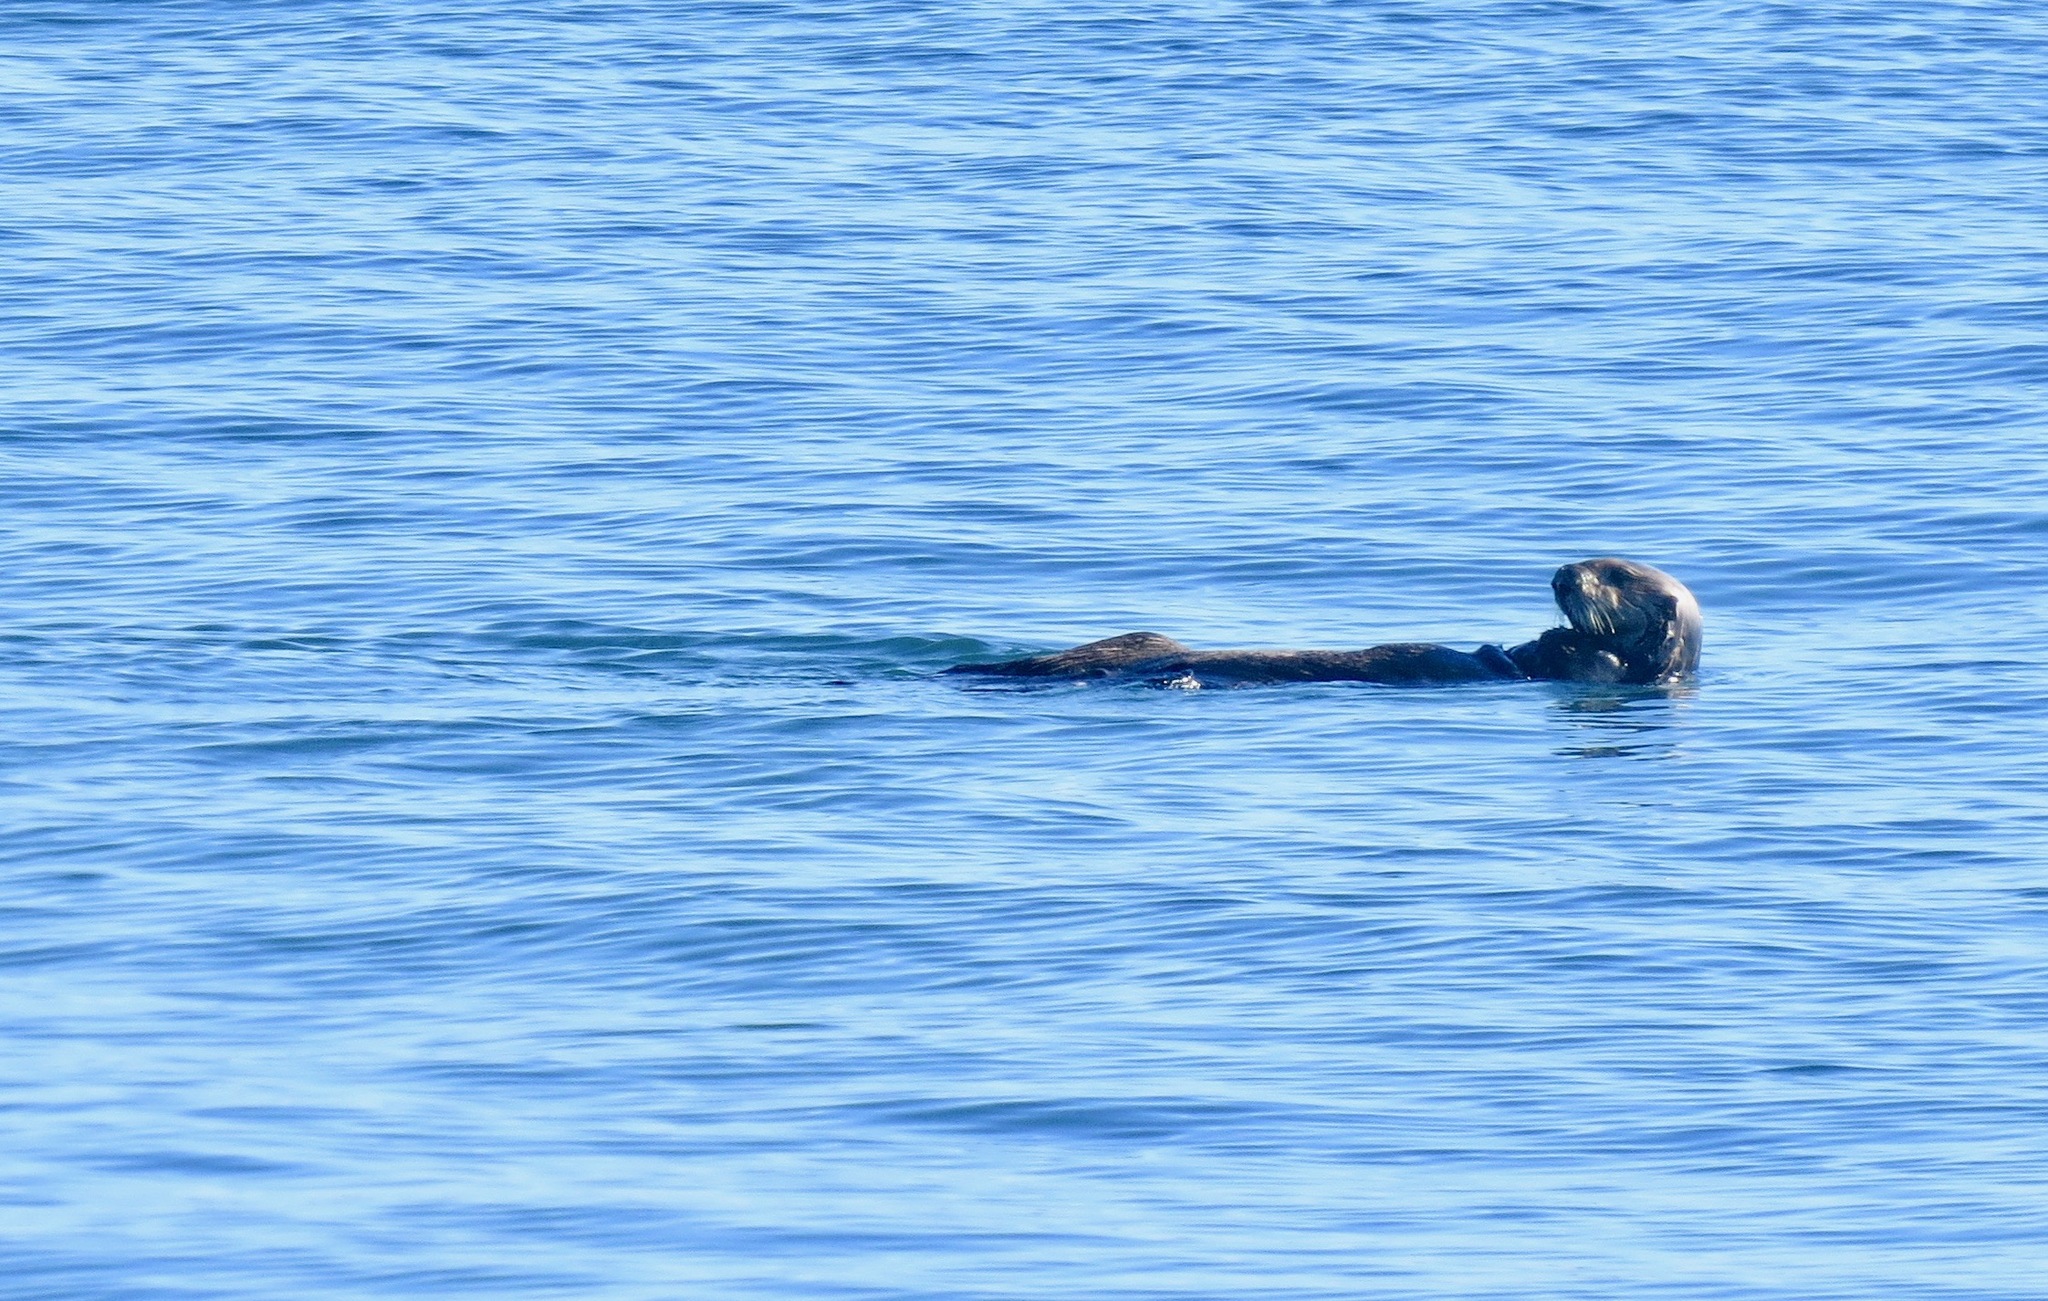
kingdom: Animalia
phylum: Chordata
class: Mammalia
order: Carnivora
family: Mustelidae
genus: Enhydra
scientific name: Enhydra lutris
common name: Sea otter
